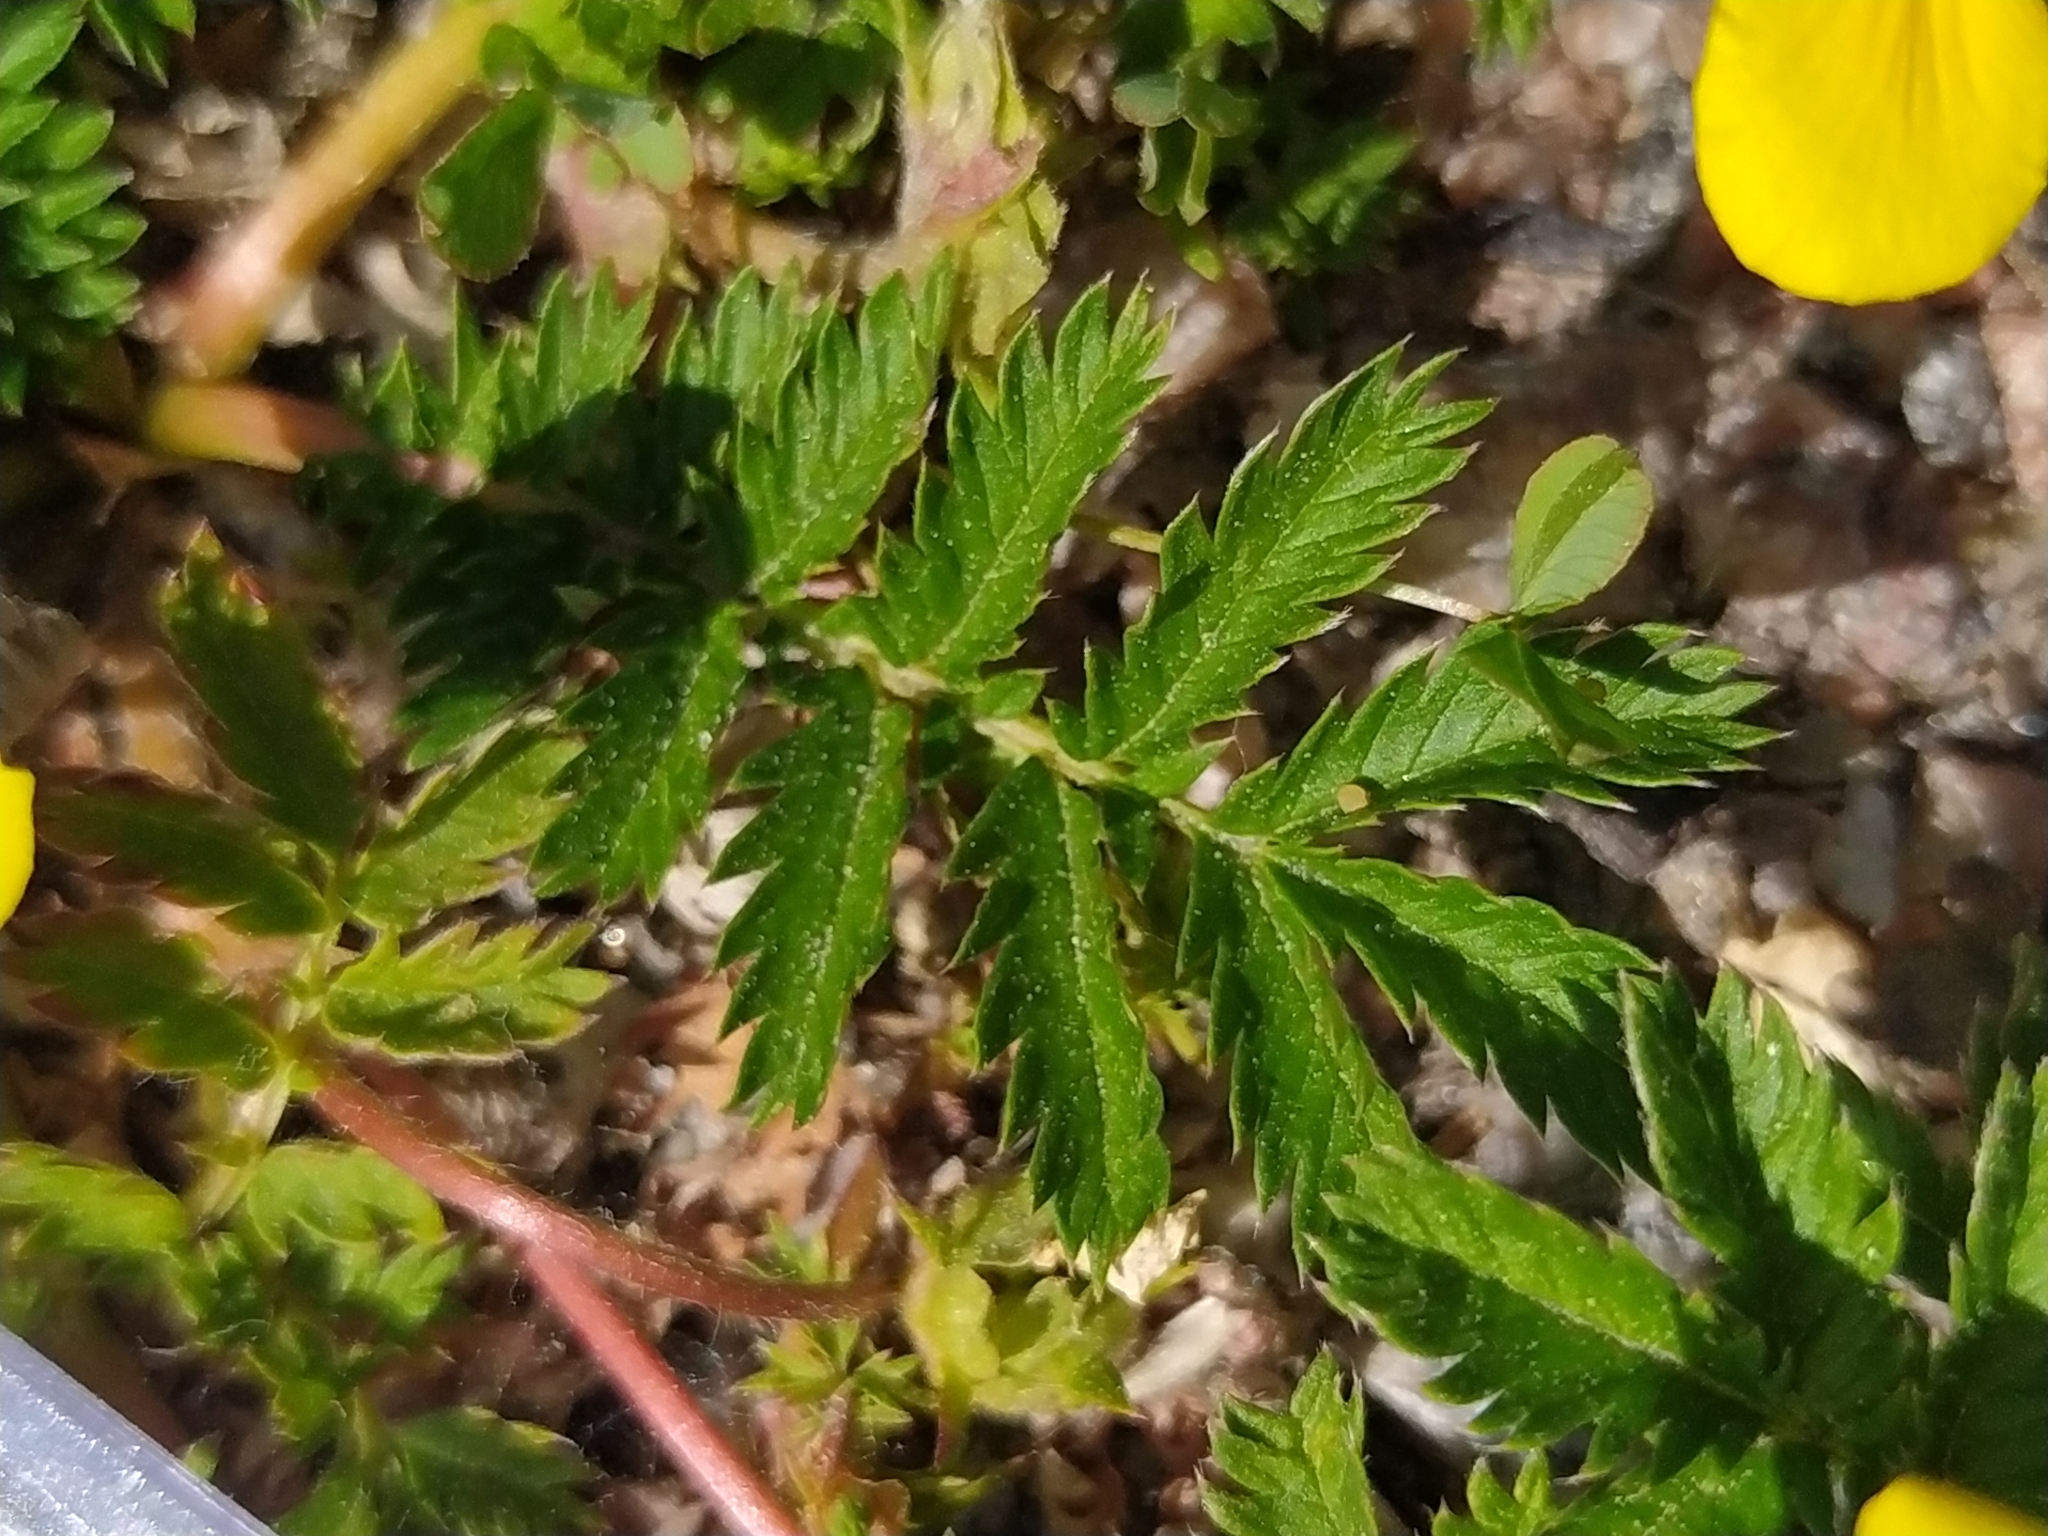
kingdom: Plantae
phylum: Tracheophyta
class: Magnoliopsida
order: Rosales
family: Rosaceae
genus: Argentina
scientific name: Argentina anserina
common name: Common silverweed
